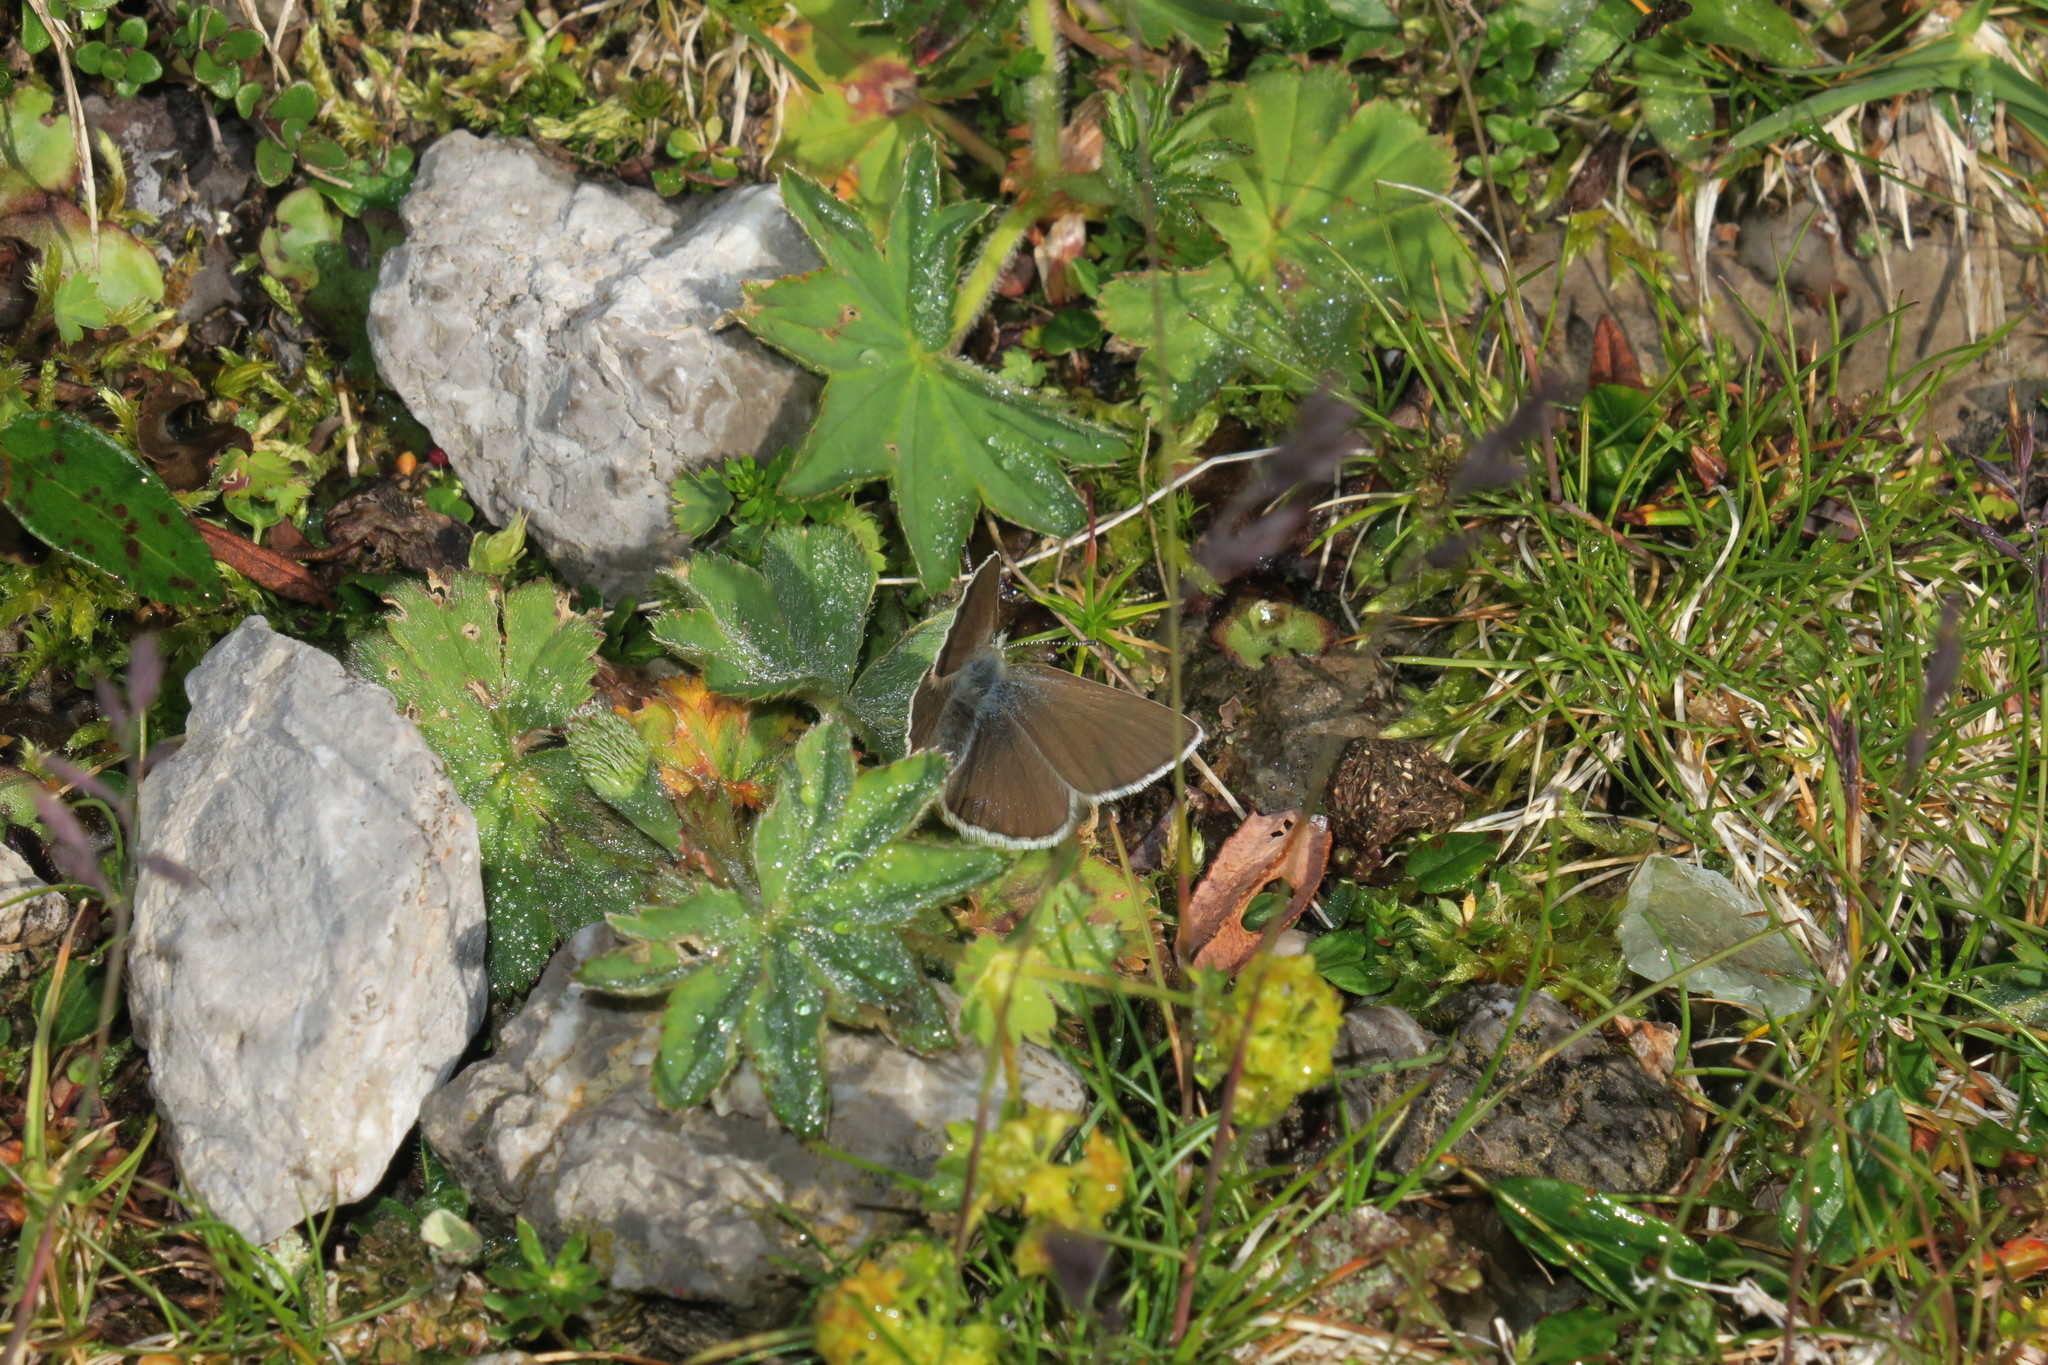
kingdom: Animalia
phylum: Arthropoda
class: Insecta
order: Lepidoptera
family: Lycaenidae
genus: Albulina
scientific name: Albulina orbitulus
